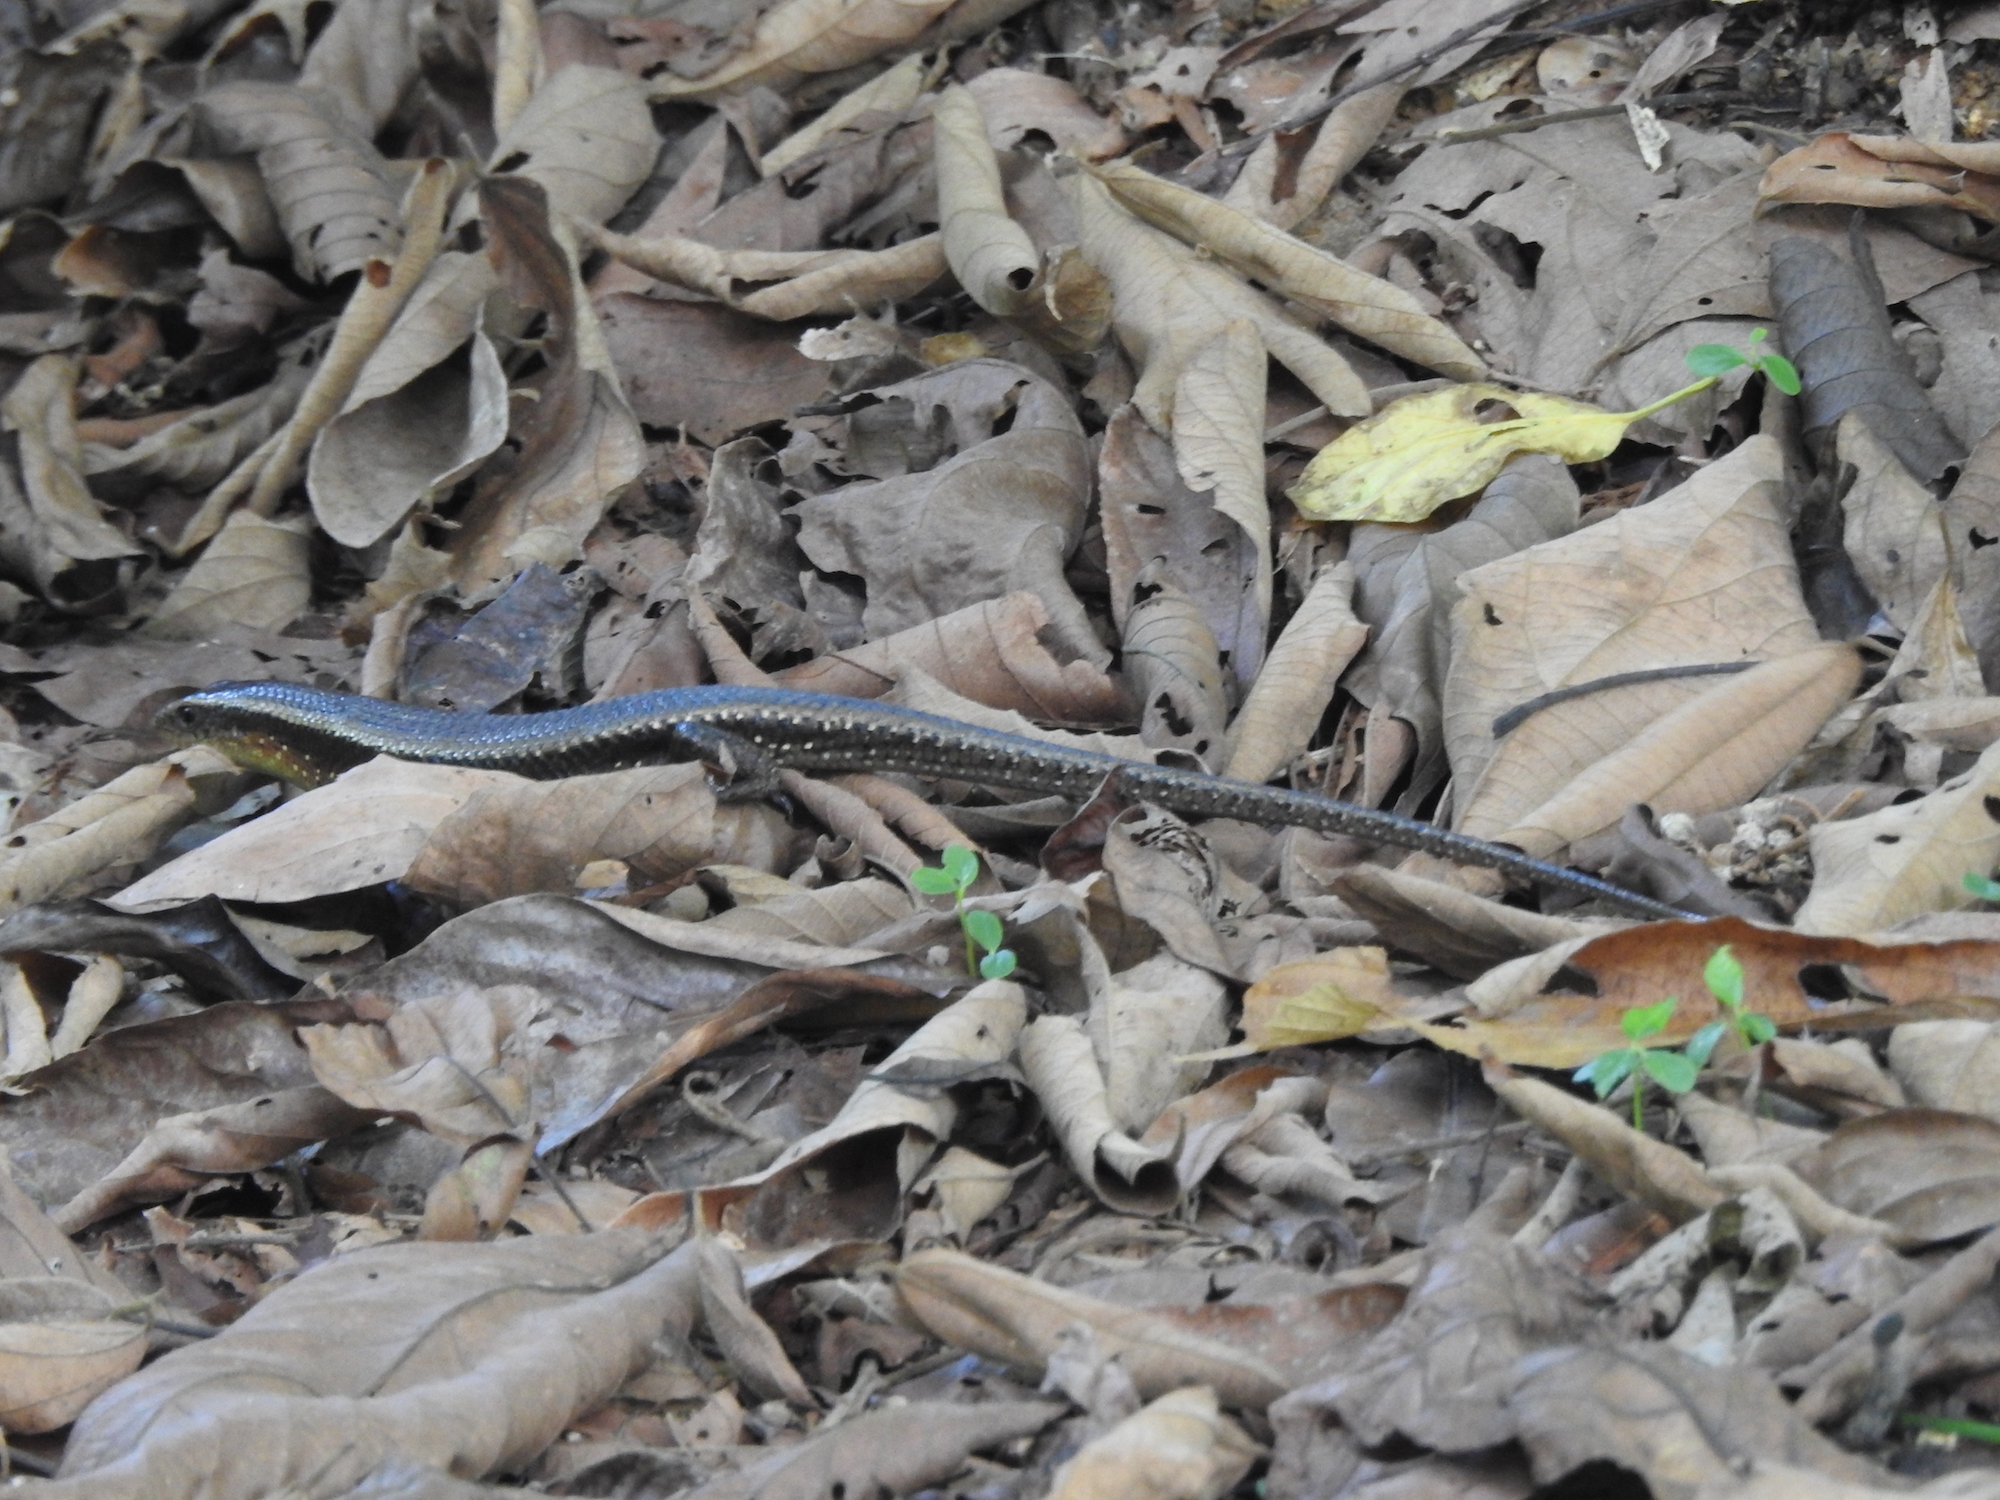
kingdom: Animalia
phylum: Chordata
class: Squamata
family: Scincidae
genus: Eutropis
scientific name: Eutropis multifasciata
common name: Common mabuya
